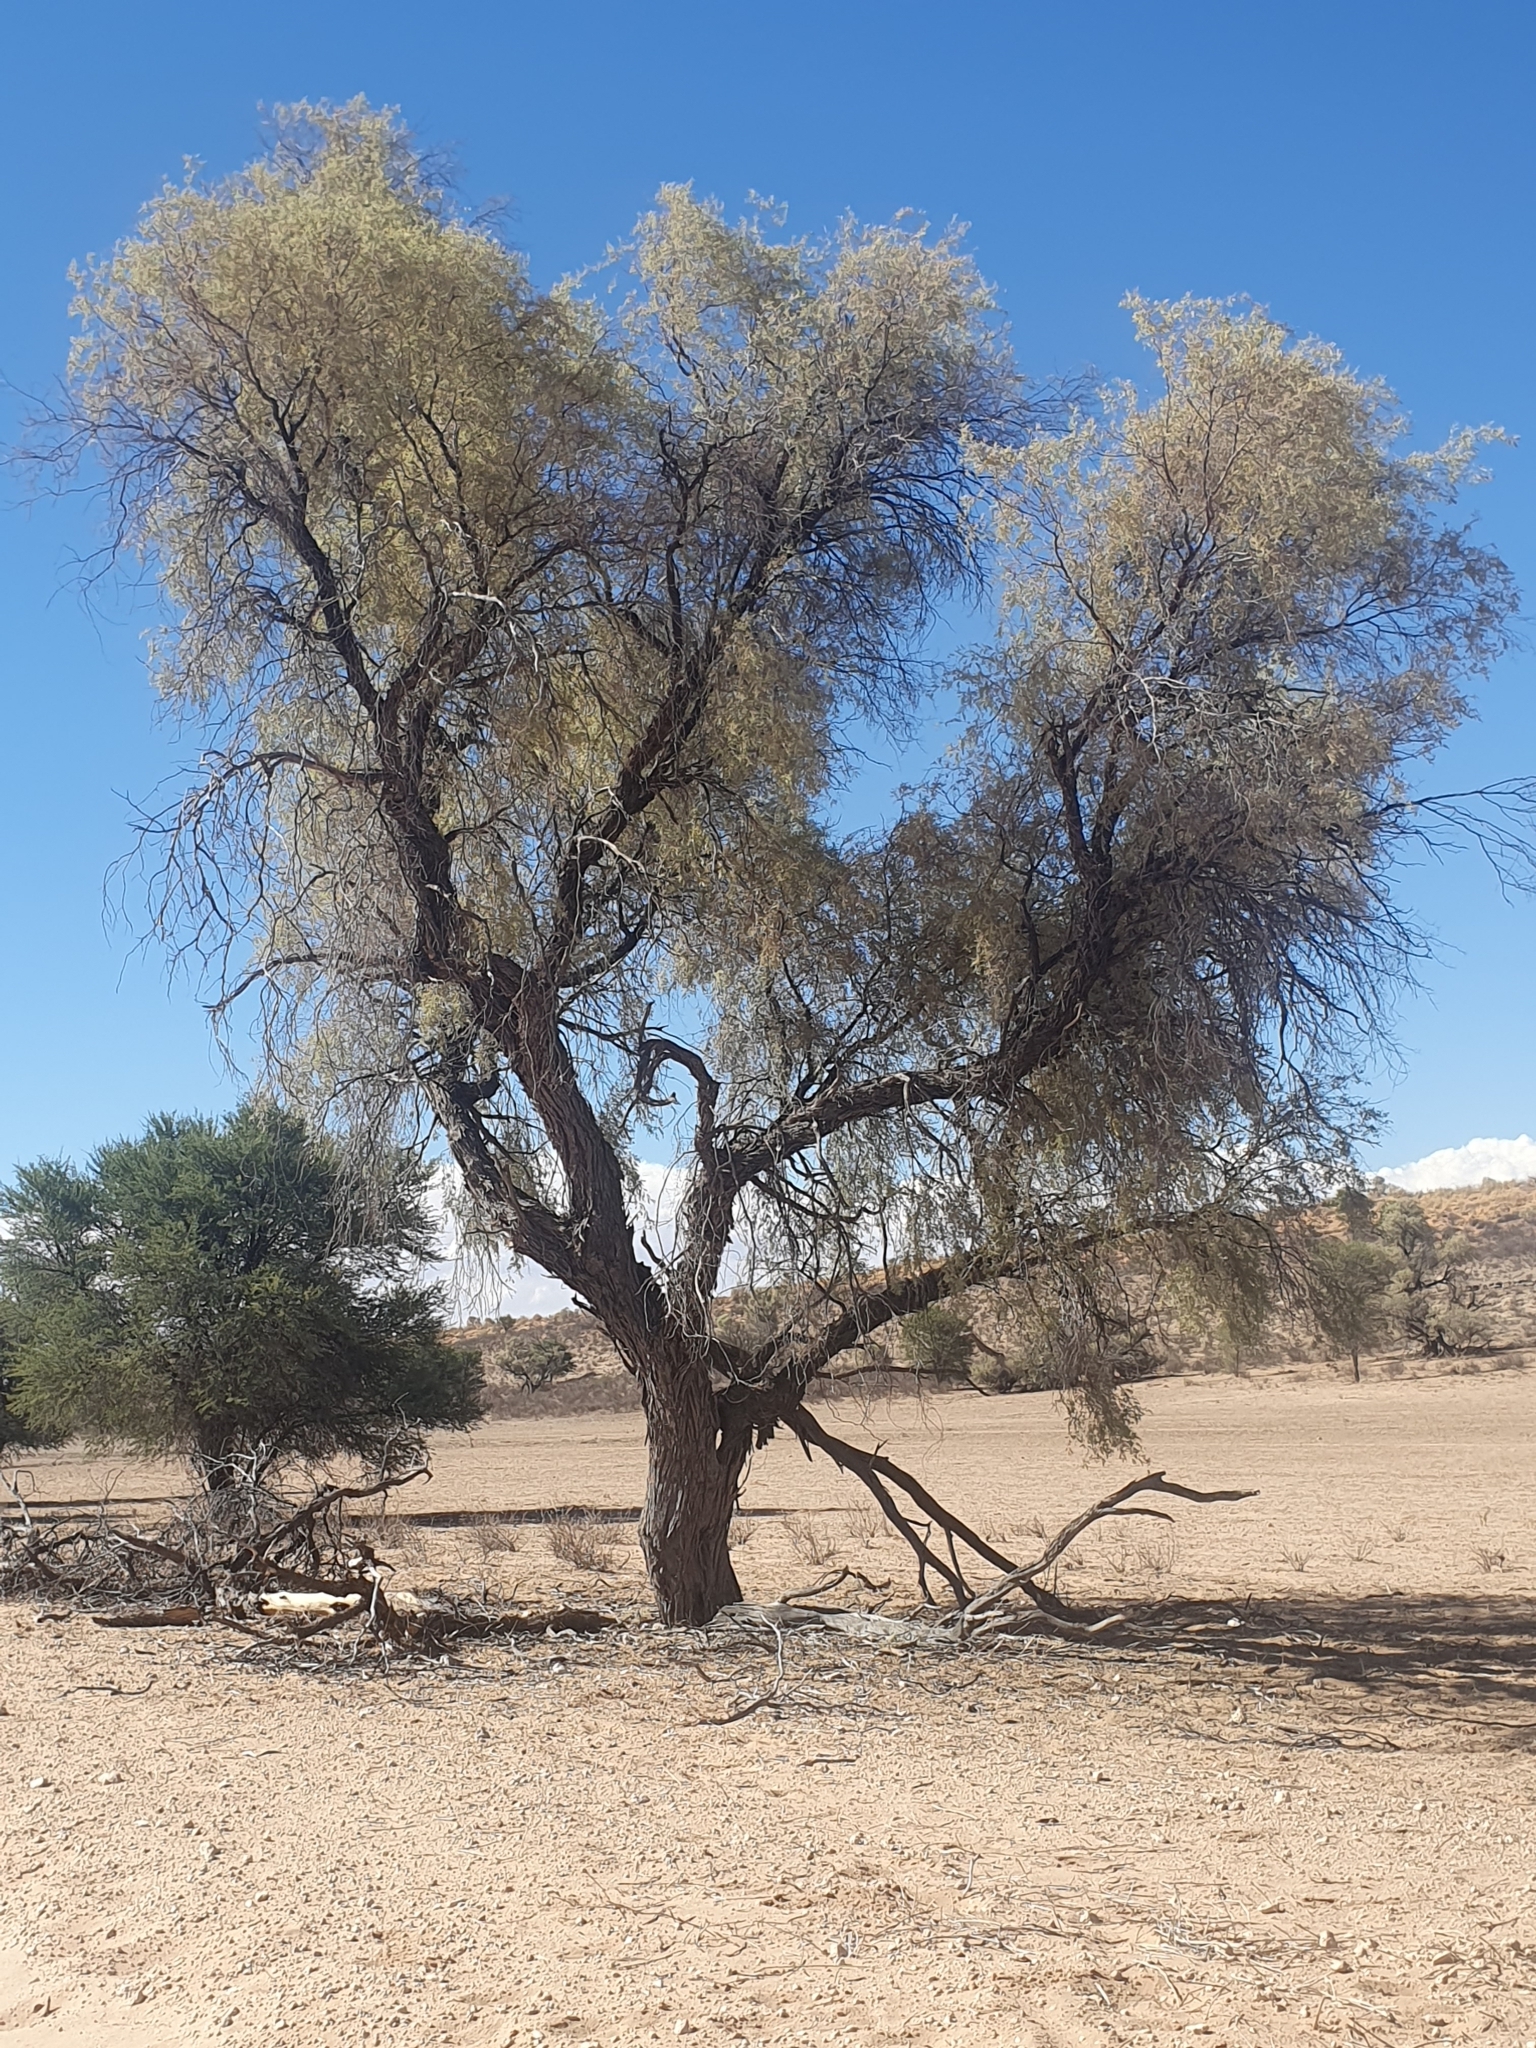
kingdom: Plantae
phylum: Tracheophyta
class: Magnoliopsida
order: Fabales
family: Fabaceae
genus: Vachellia
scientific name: Vachellia haematoxylon
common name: Grey camel thorn
